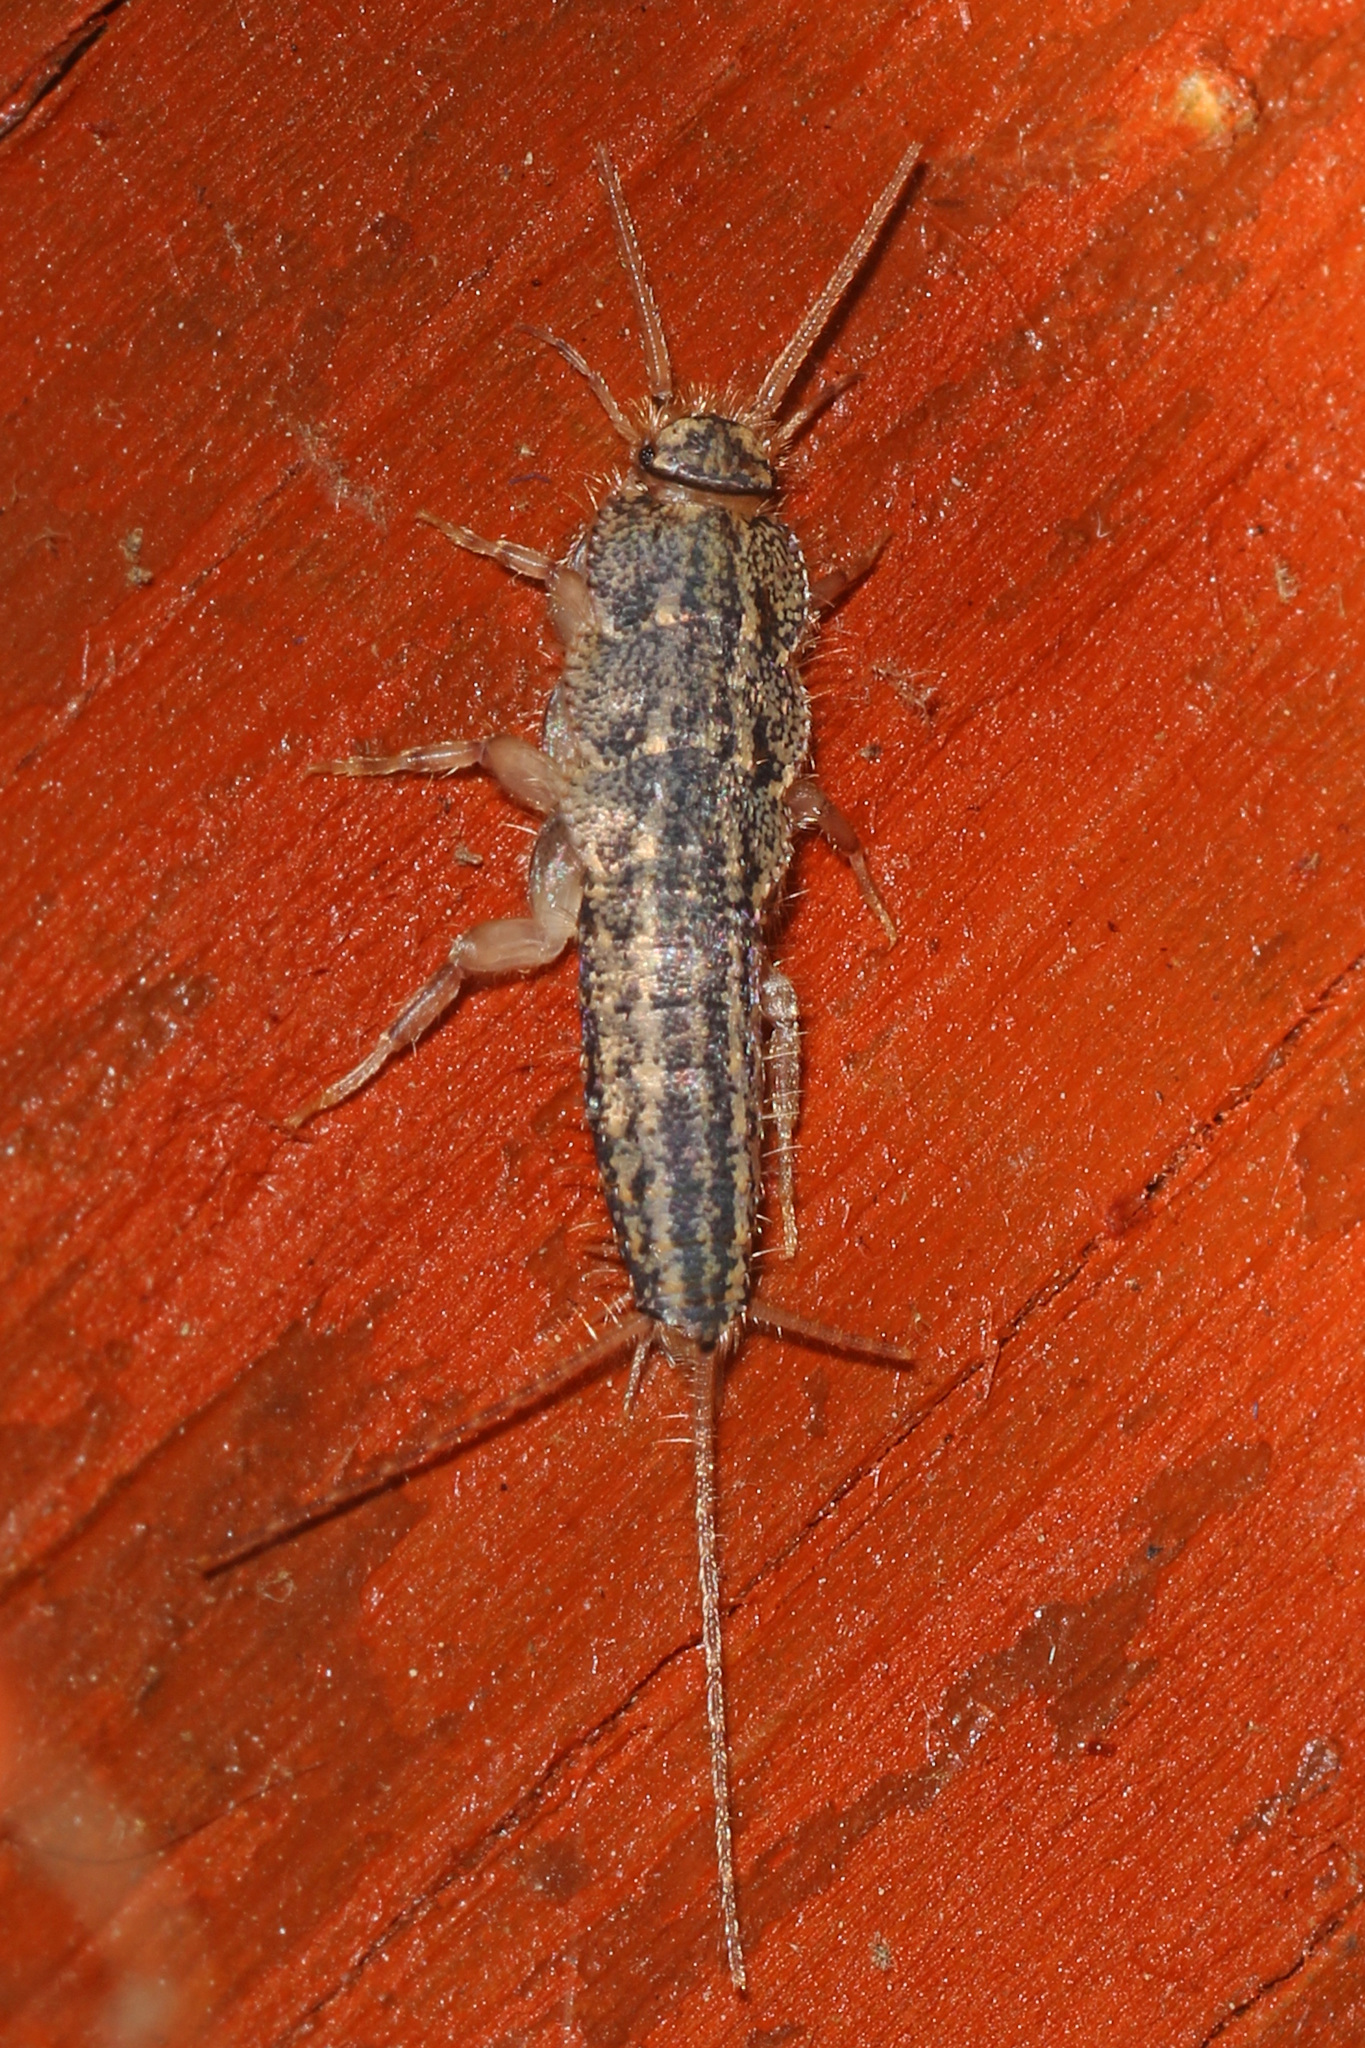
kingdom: Animalia
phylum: Arthropoda
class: Insecta
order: Zygentoma
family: Lepismatidae
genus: Ctenolepisma
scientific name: Ctenolepisma lineata
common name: Four-lined silverfish
